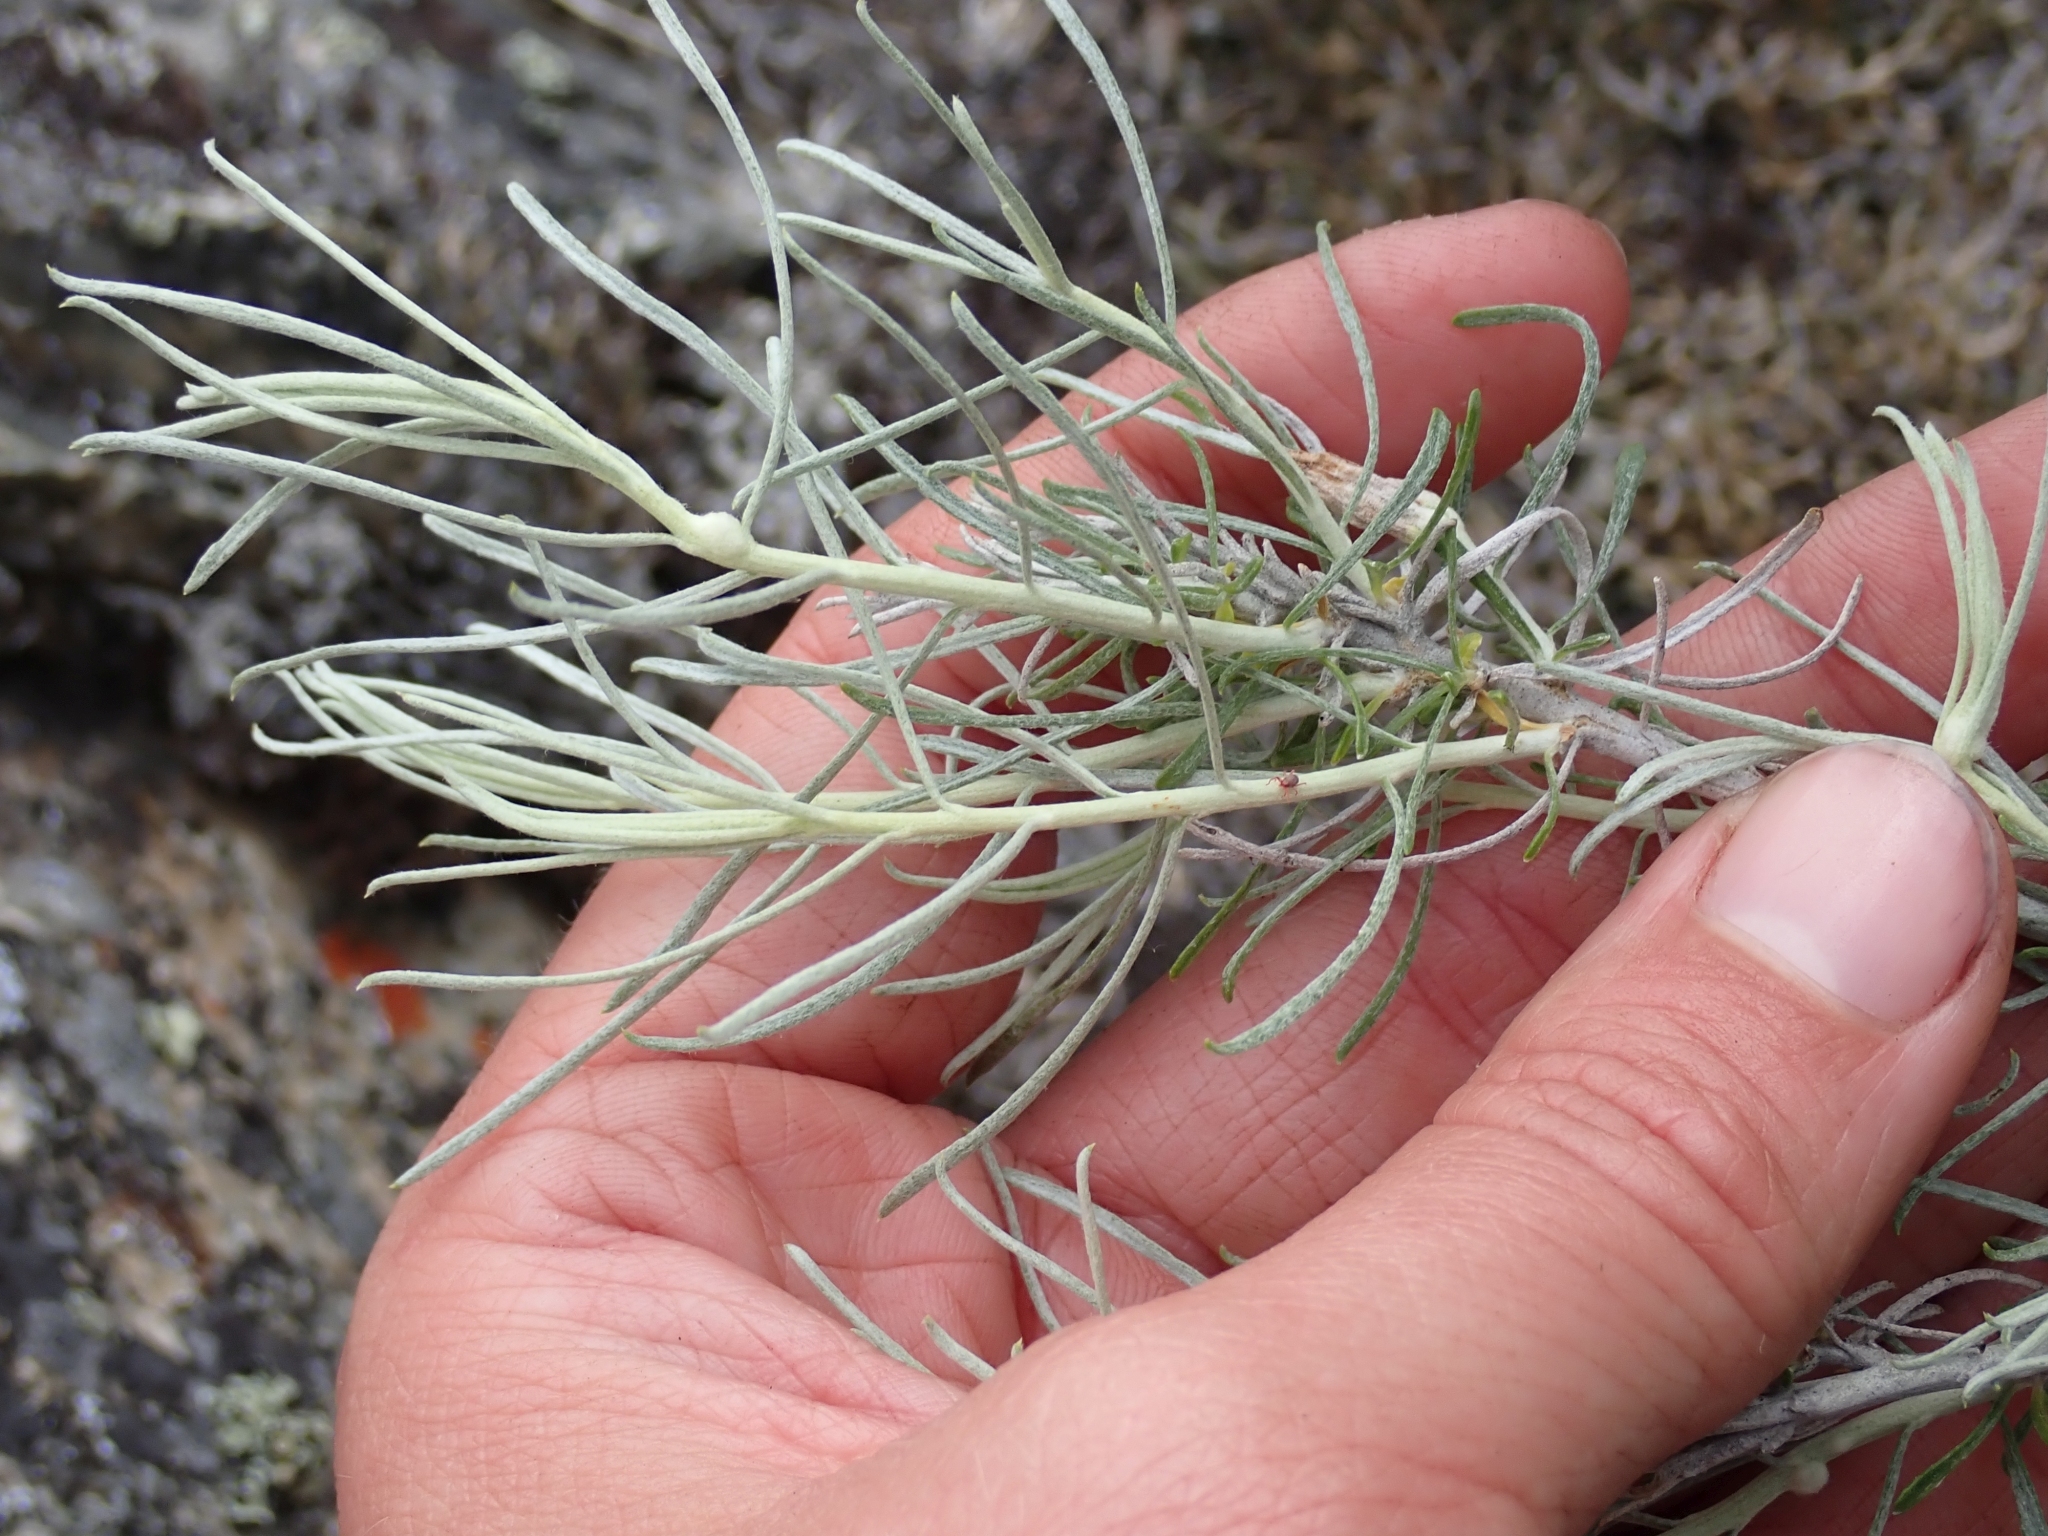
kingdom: Plantae
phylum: Tracheophyta
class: Magnoliopsida
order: Asterales
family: Asteraceae
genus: Ericameria
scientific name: Ericameria nauseosa
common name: Rubber rabbitbrush
